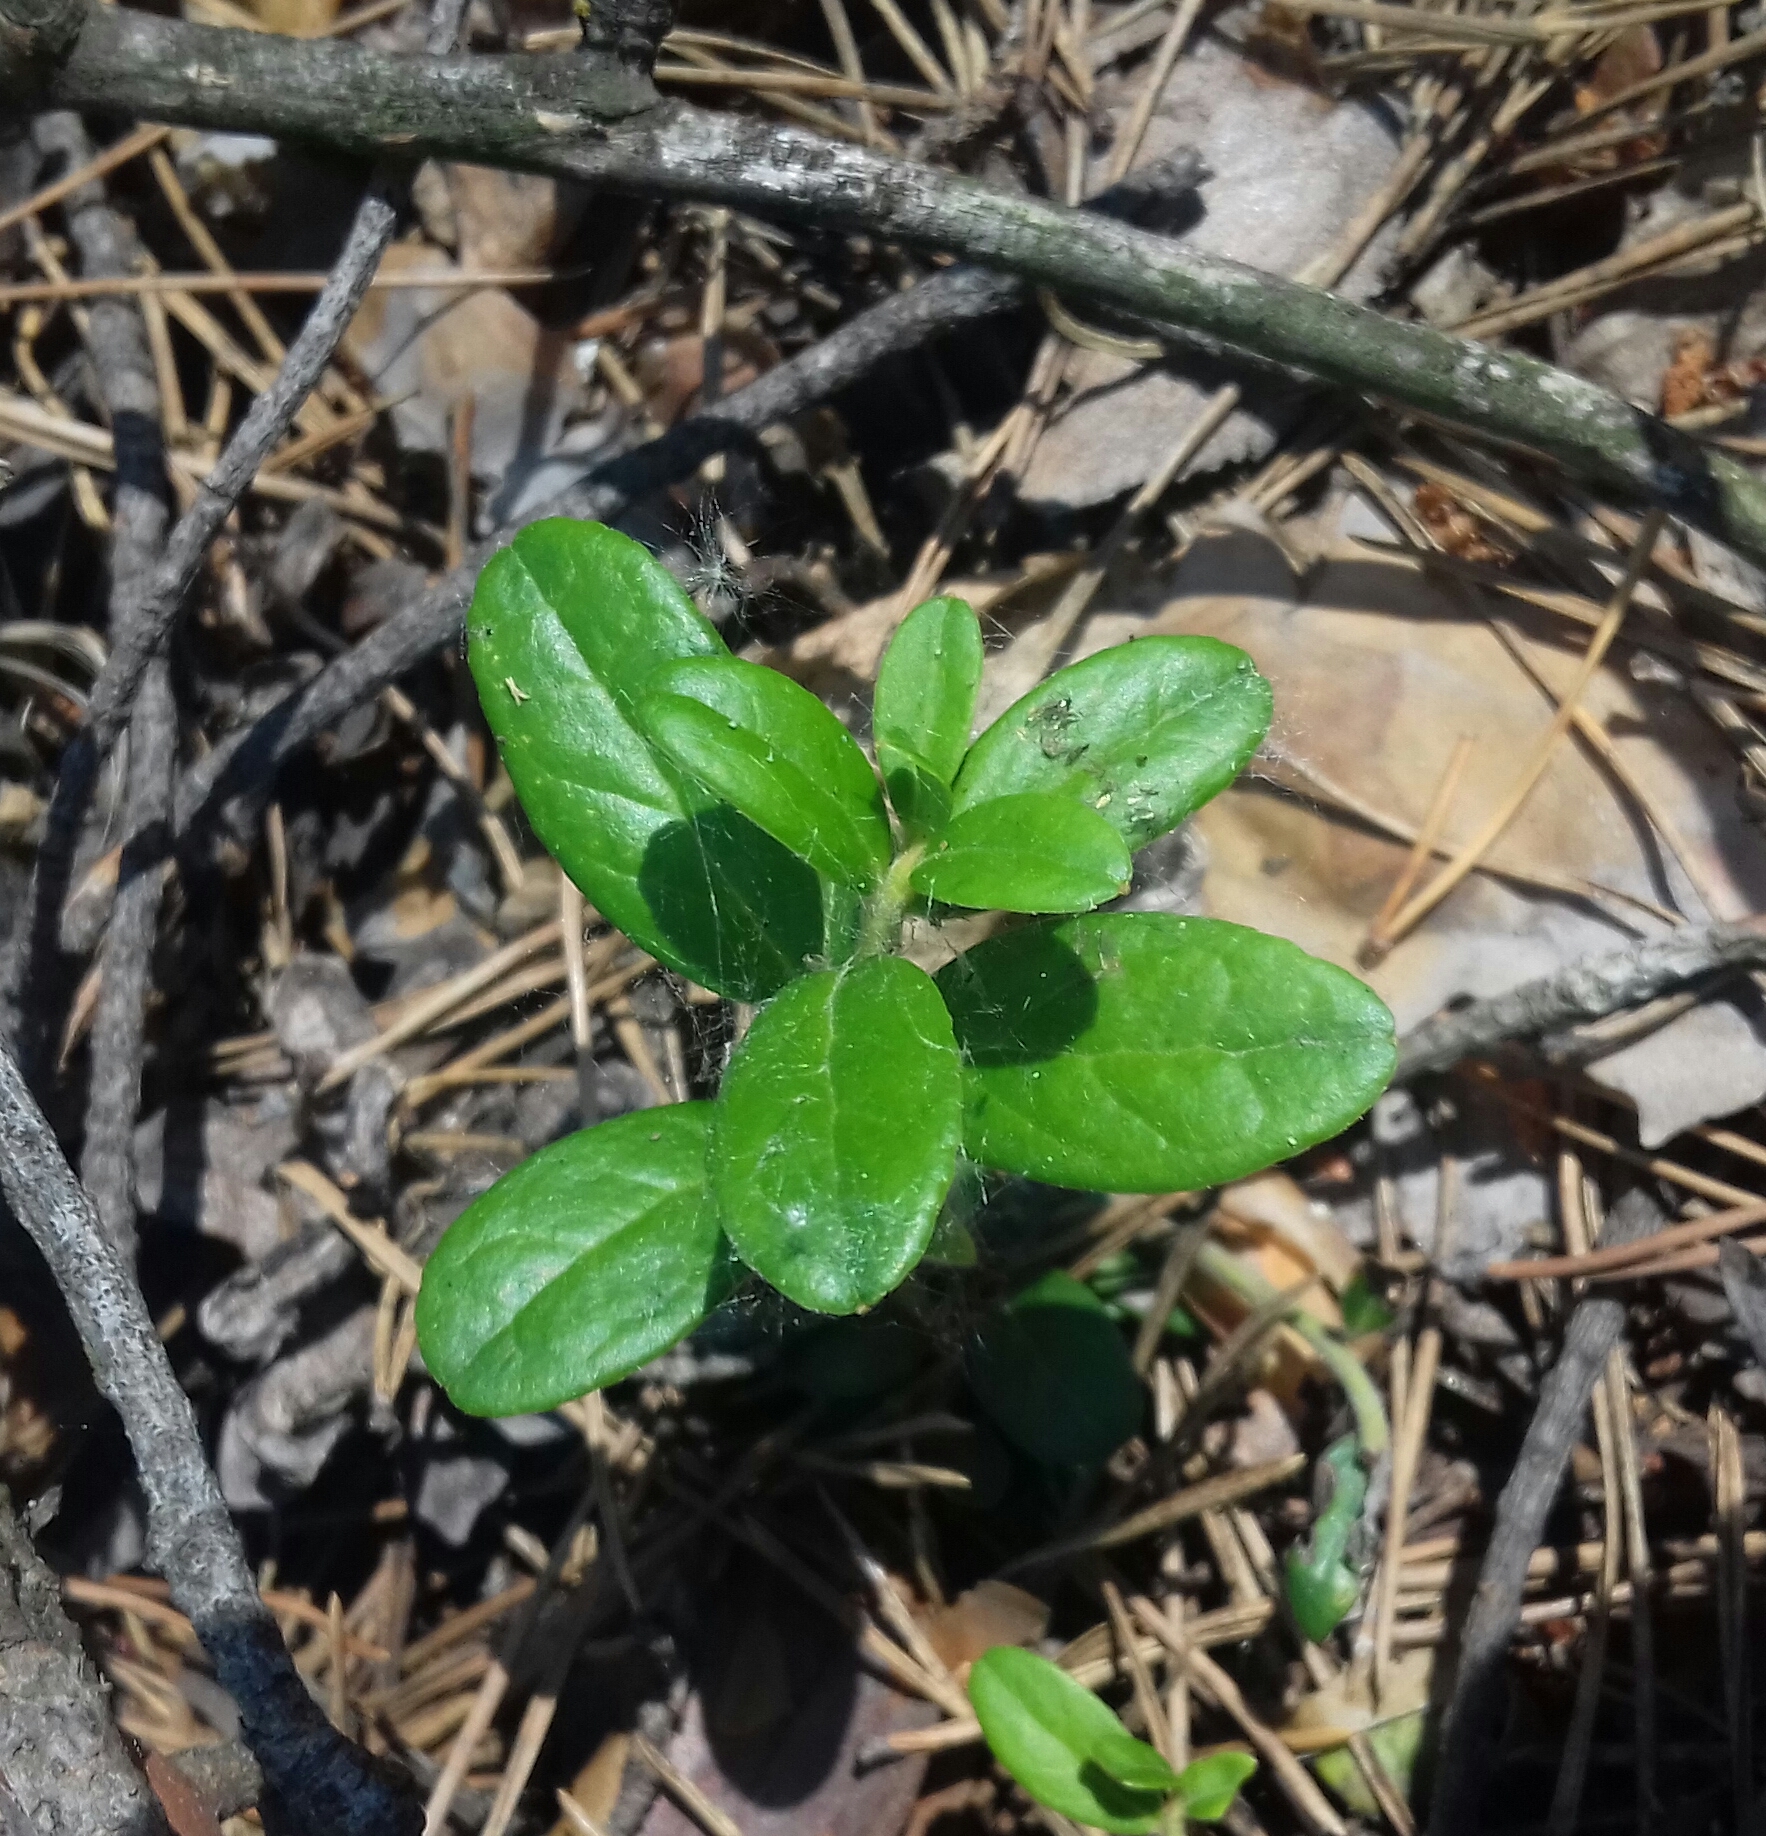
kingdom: Plantae
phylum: Tracheophyta
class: Magnoliopsida
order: Ericales
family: Ericaceae
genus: Vaccinium
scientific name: Vaccinium vitis-idaea
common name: Cowberry
